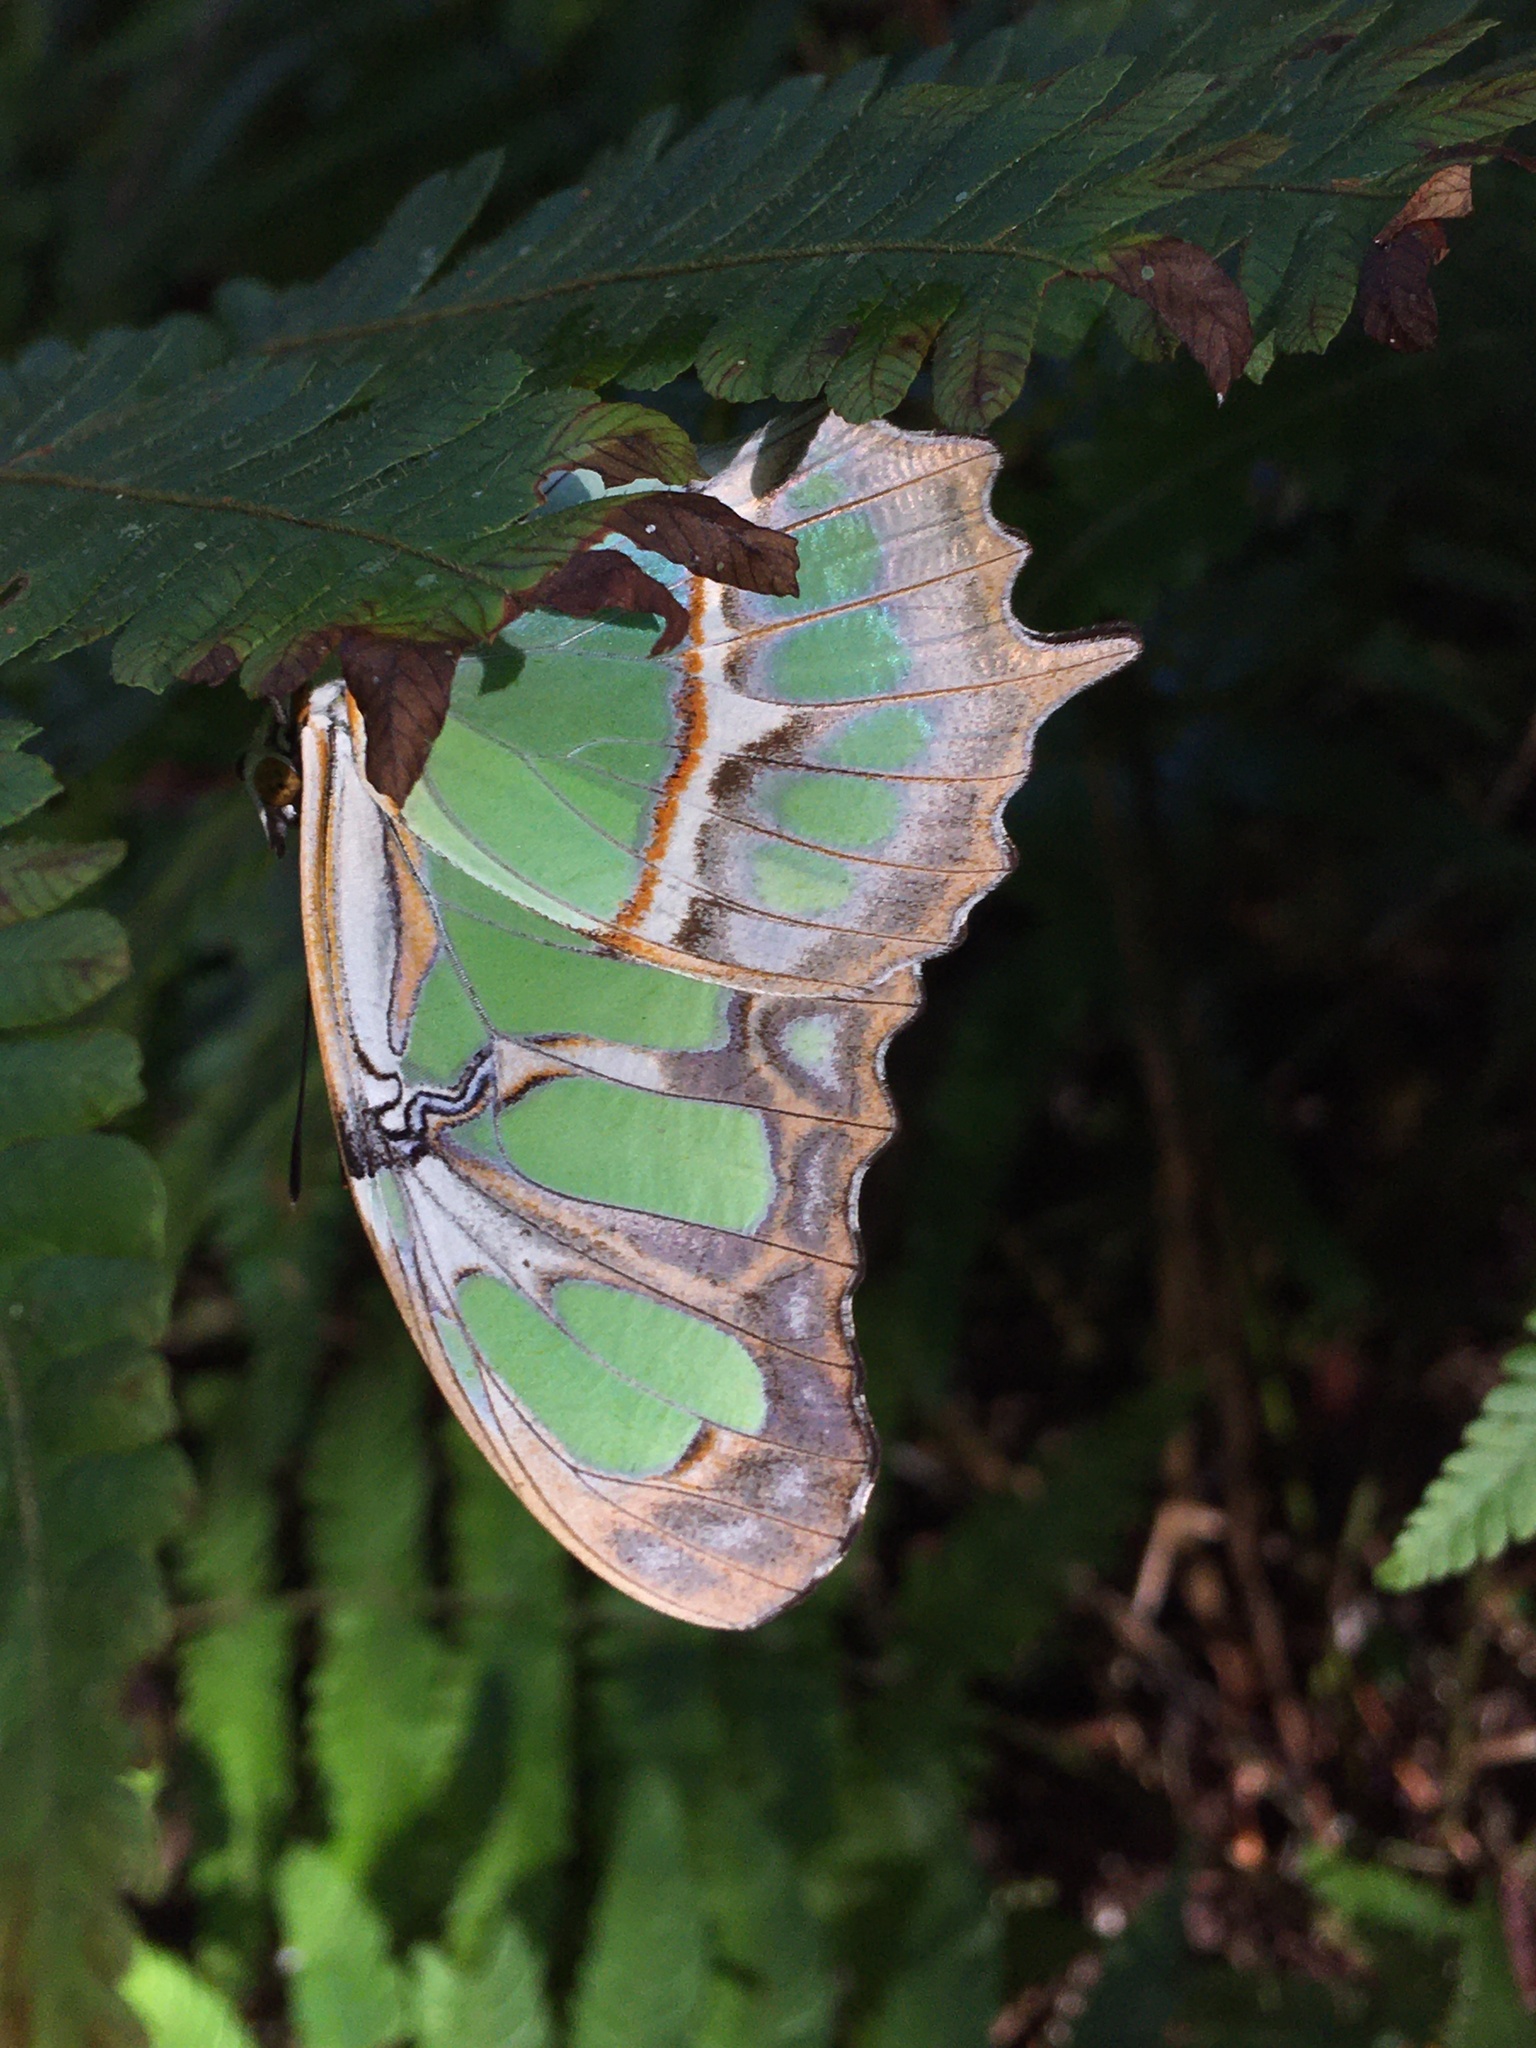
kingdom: Animalia
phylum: Arthropoda
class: Insecta
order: Lepidoptera
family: Nymphalidae
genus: Siproeta
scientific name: Siproeta stelenes
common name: Malachite
